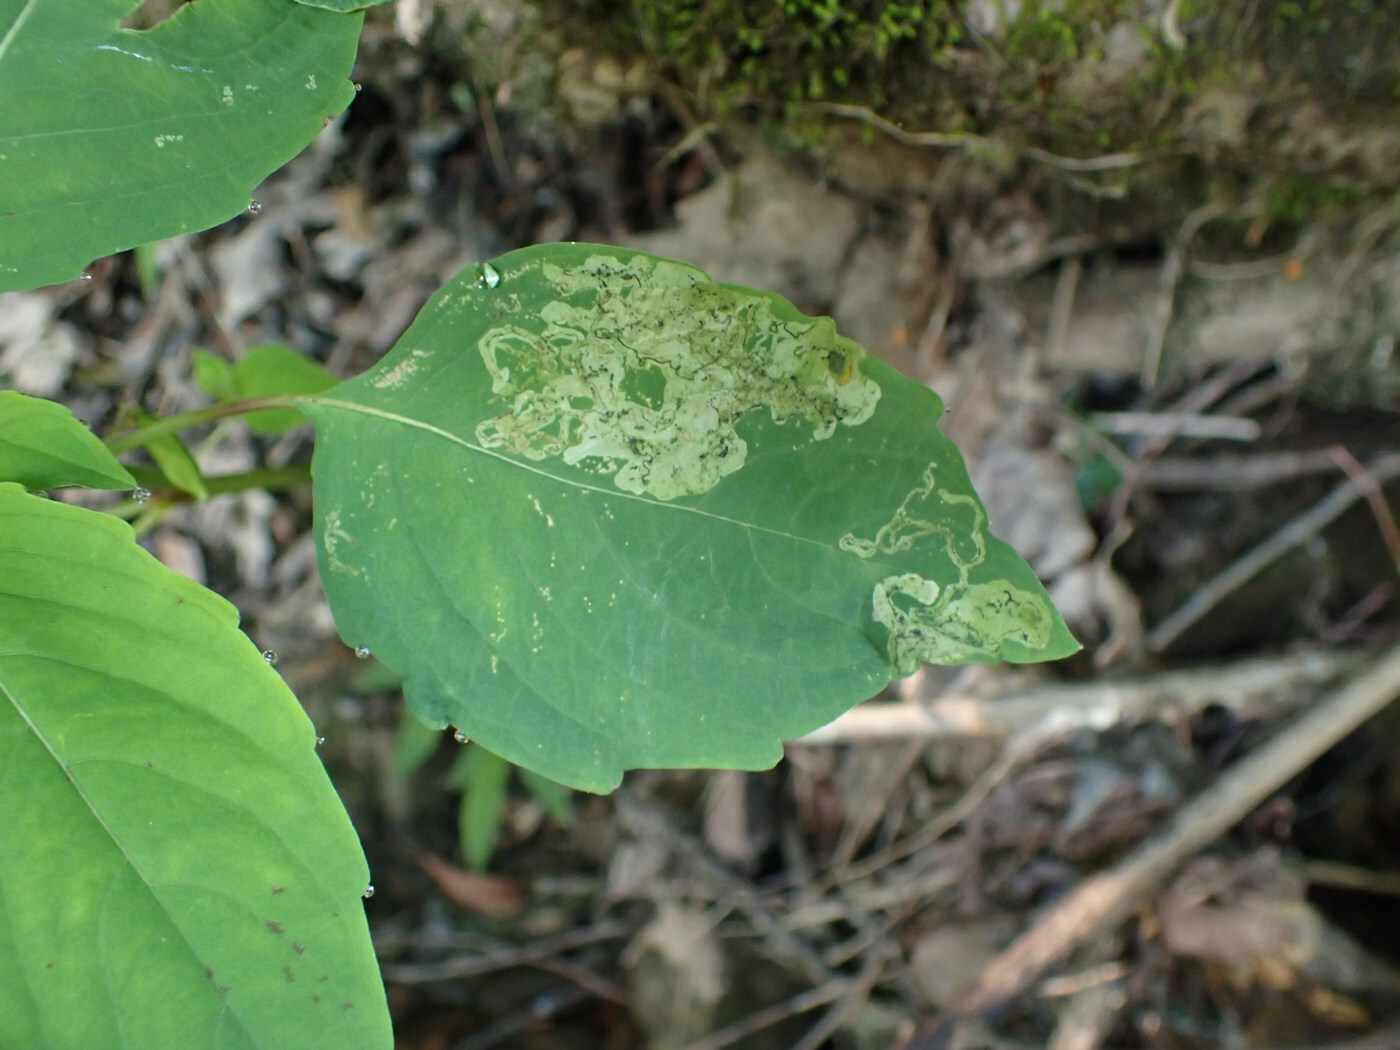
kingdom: Animalia
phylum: Arthropoda
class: Insecta
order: Diptera
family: Agromyzidae
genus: Phytoliriomyza
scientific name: Phytoliriomyza melampyga
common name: Jewelweed leaf-miner fly
